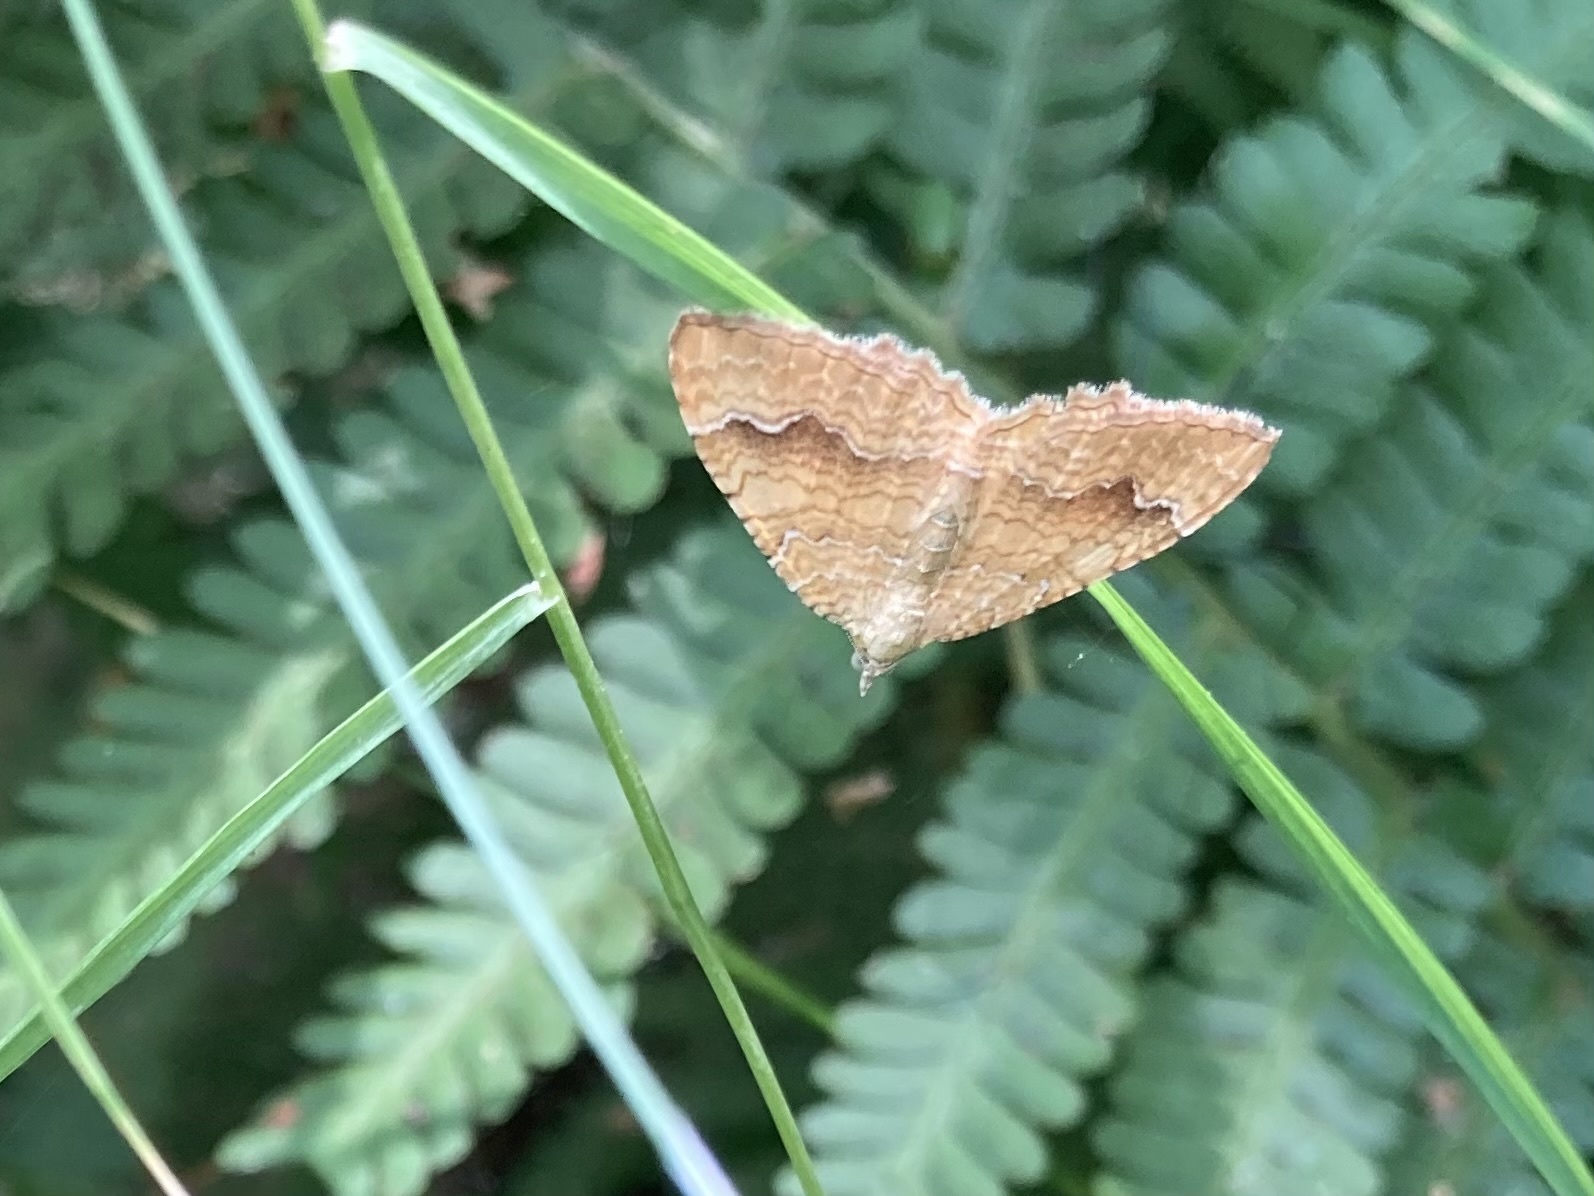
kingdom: Animalia
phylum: Arthropoda
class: Insecta
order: Lepidoptera
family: Geometridae
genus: Camptogramma
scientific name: Camptogramma bilineata
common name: Yellow shell
